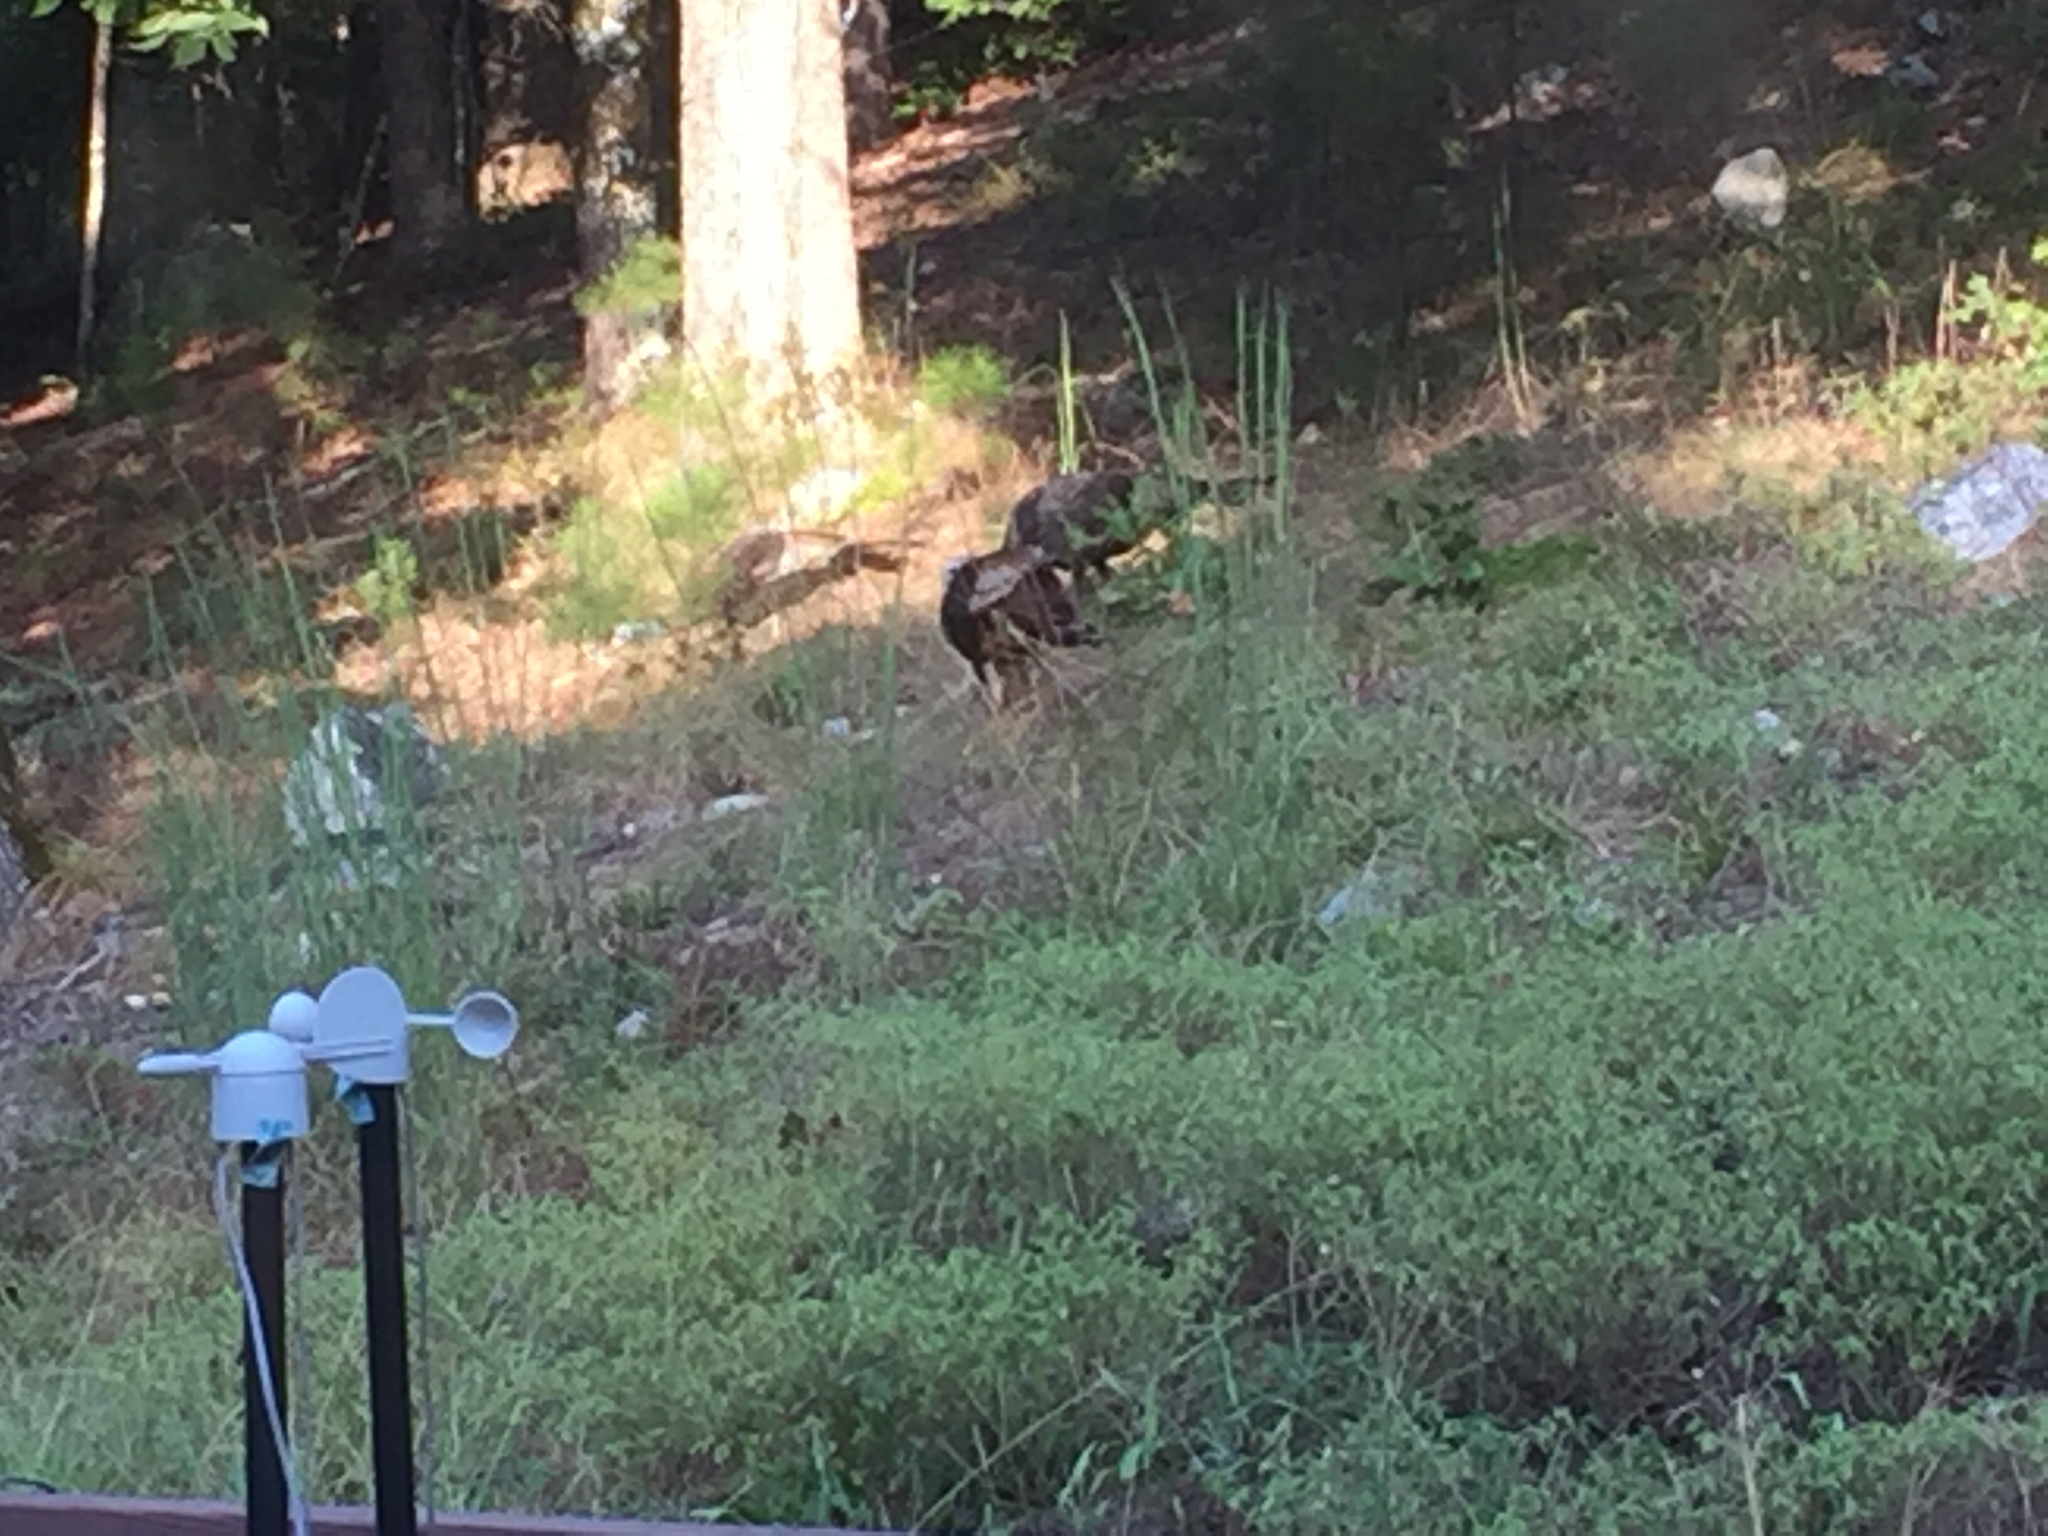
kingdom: Animalia
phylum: Chordata
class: Aves
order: Galliformes
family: Phasianidae
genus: Meleagris
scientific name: Meleagris gallopavo
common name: Wild turkey
